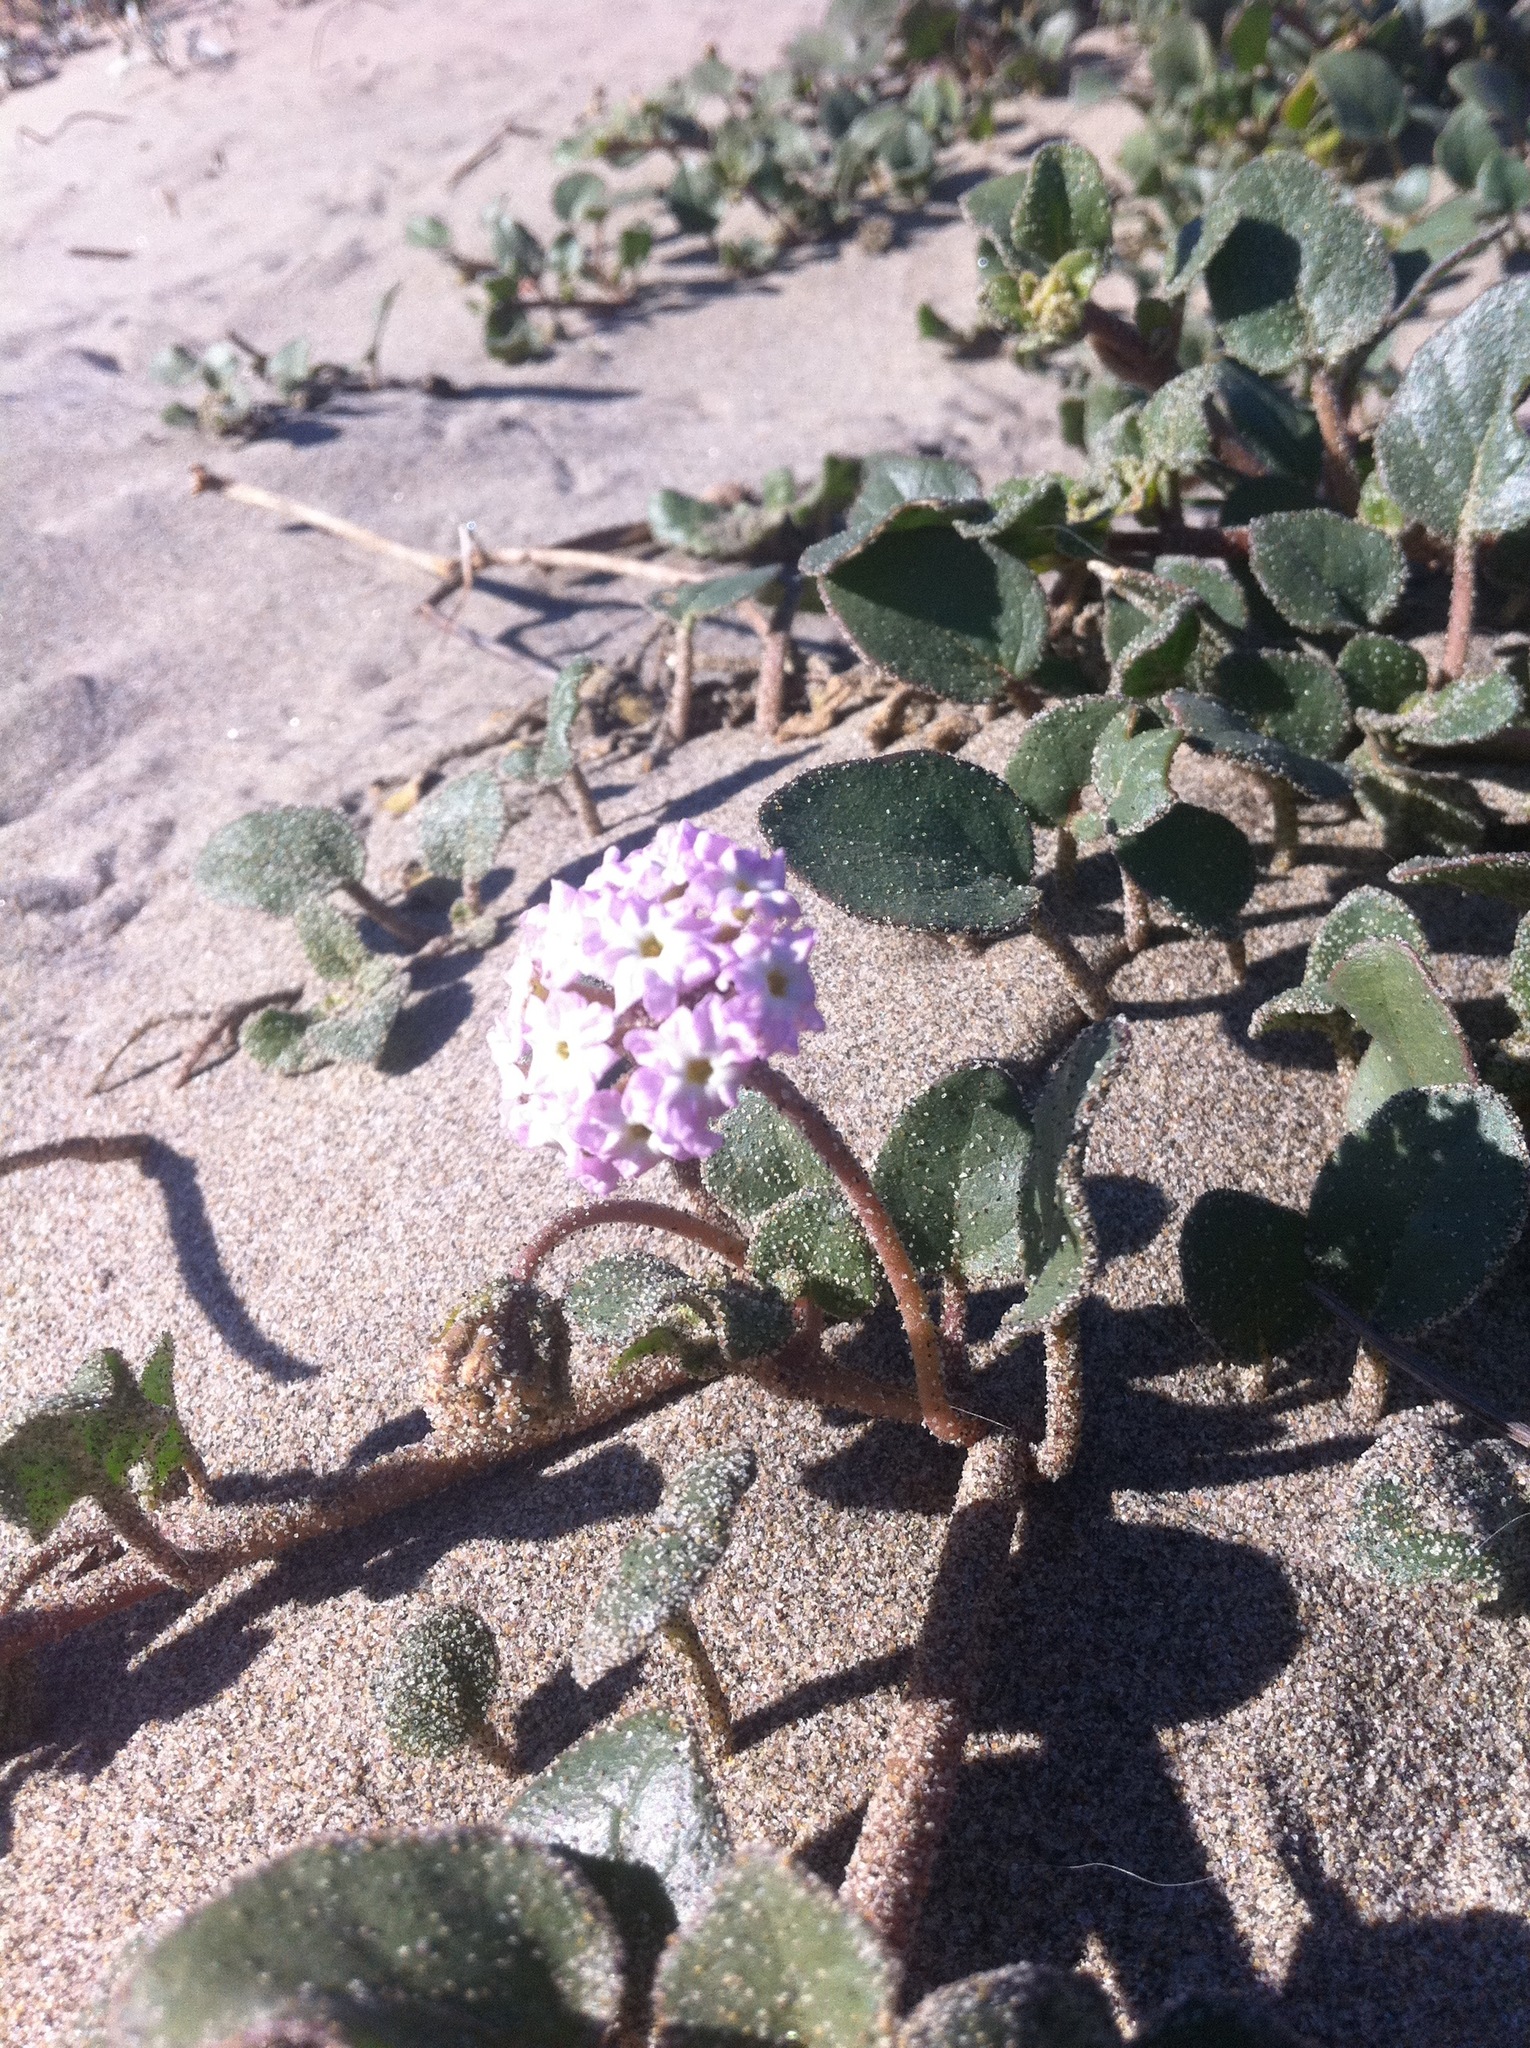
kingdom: Plantae
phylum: Tracheophyta
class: Magnoliopsida
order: Caryophyllales
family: Nyctaginaceae
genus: Abronia
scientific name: Abronia umbellata
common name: Sand-verbena
